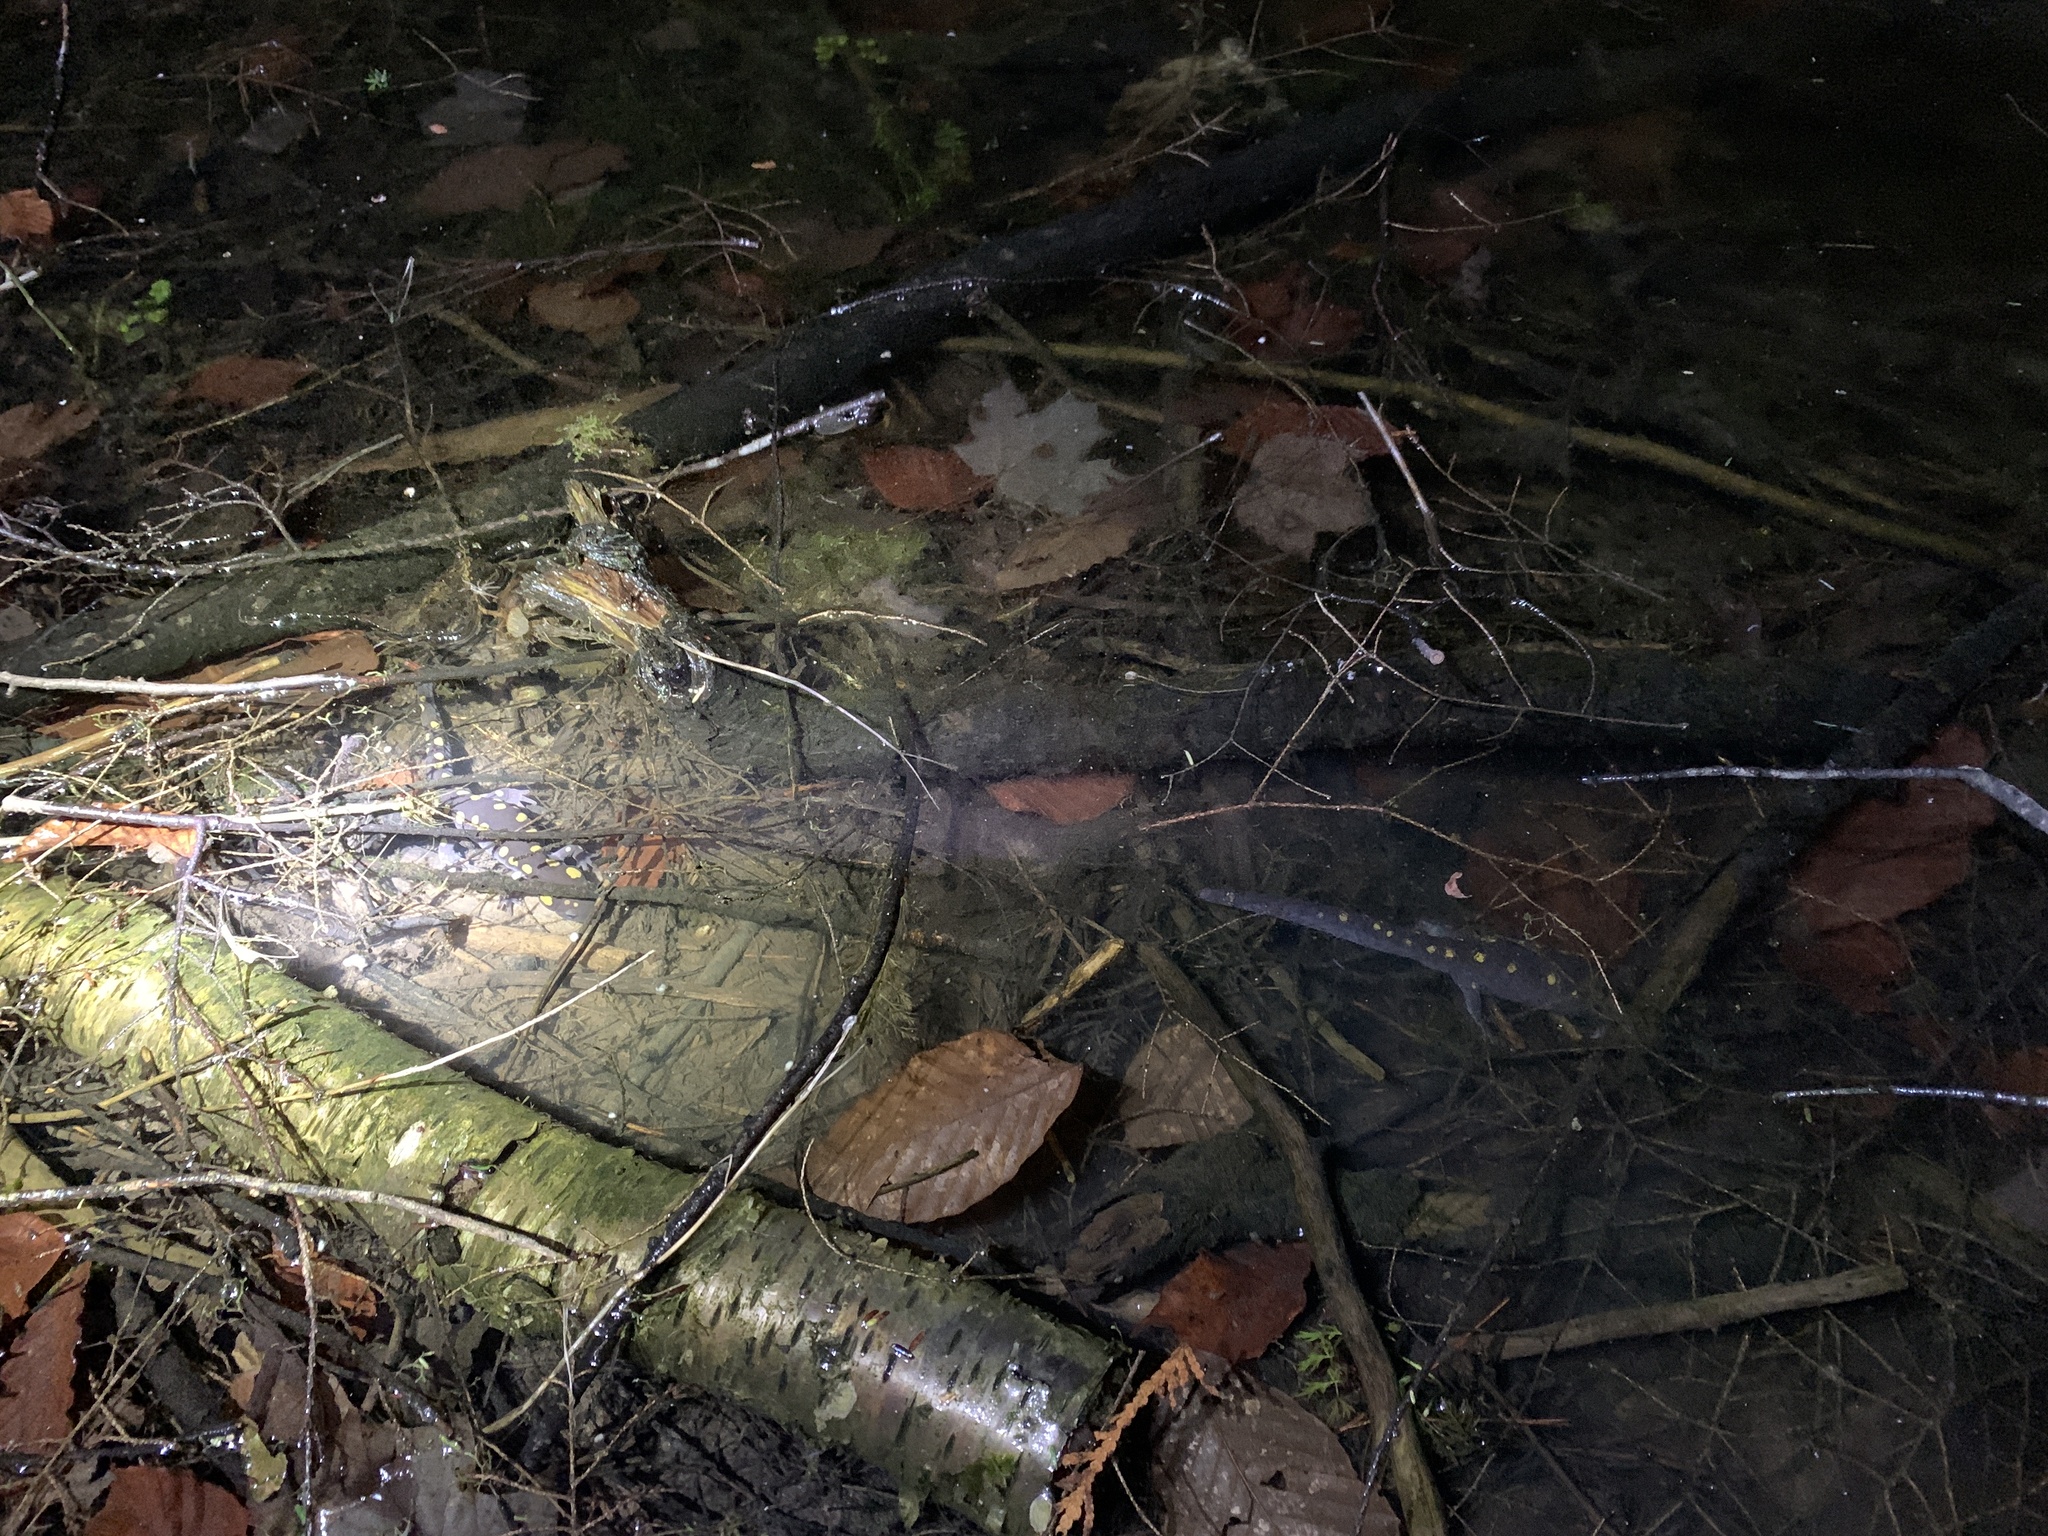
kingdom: Animalia
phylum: Chordata
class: Amphibia
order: Caudata
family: Ambystomatidae
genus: Ambystoma
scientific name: Ambystoma maculatum
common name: Spotted salamander
